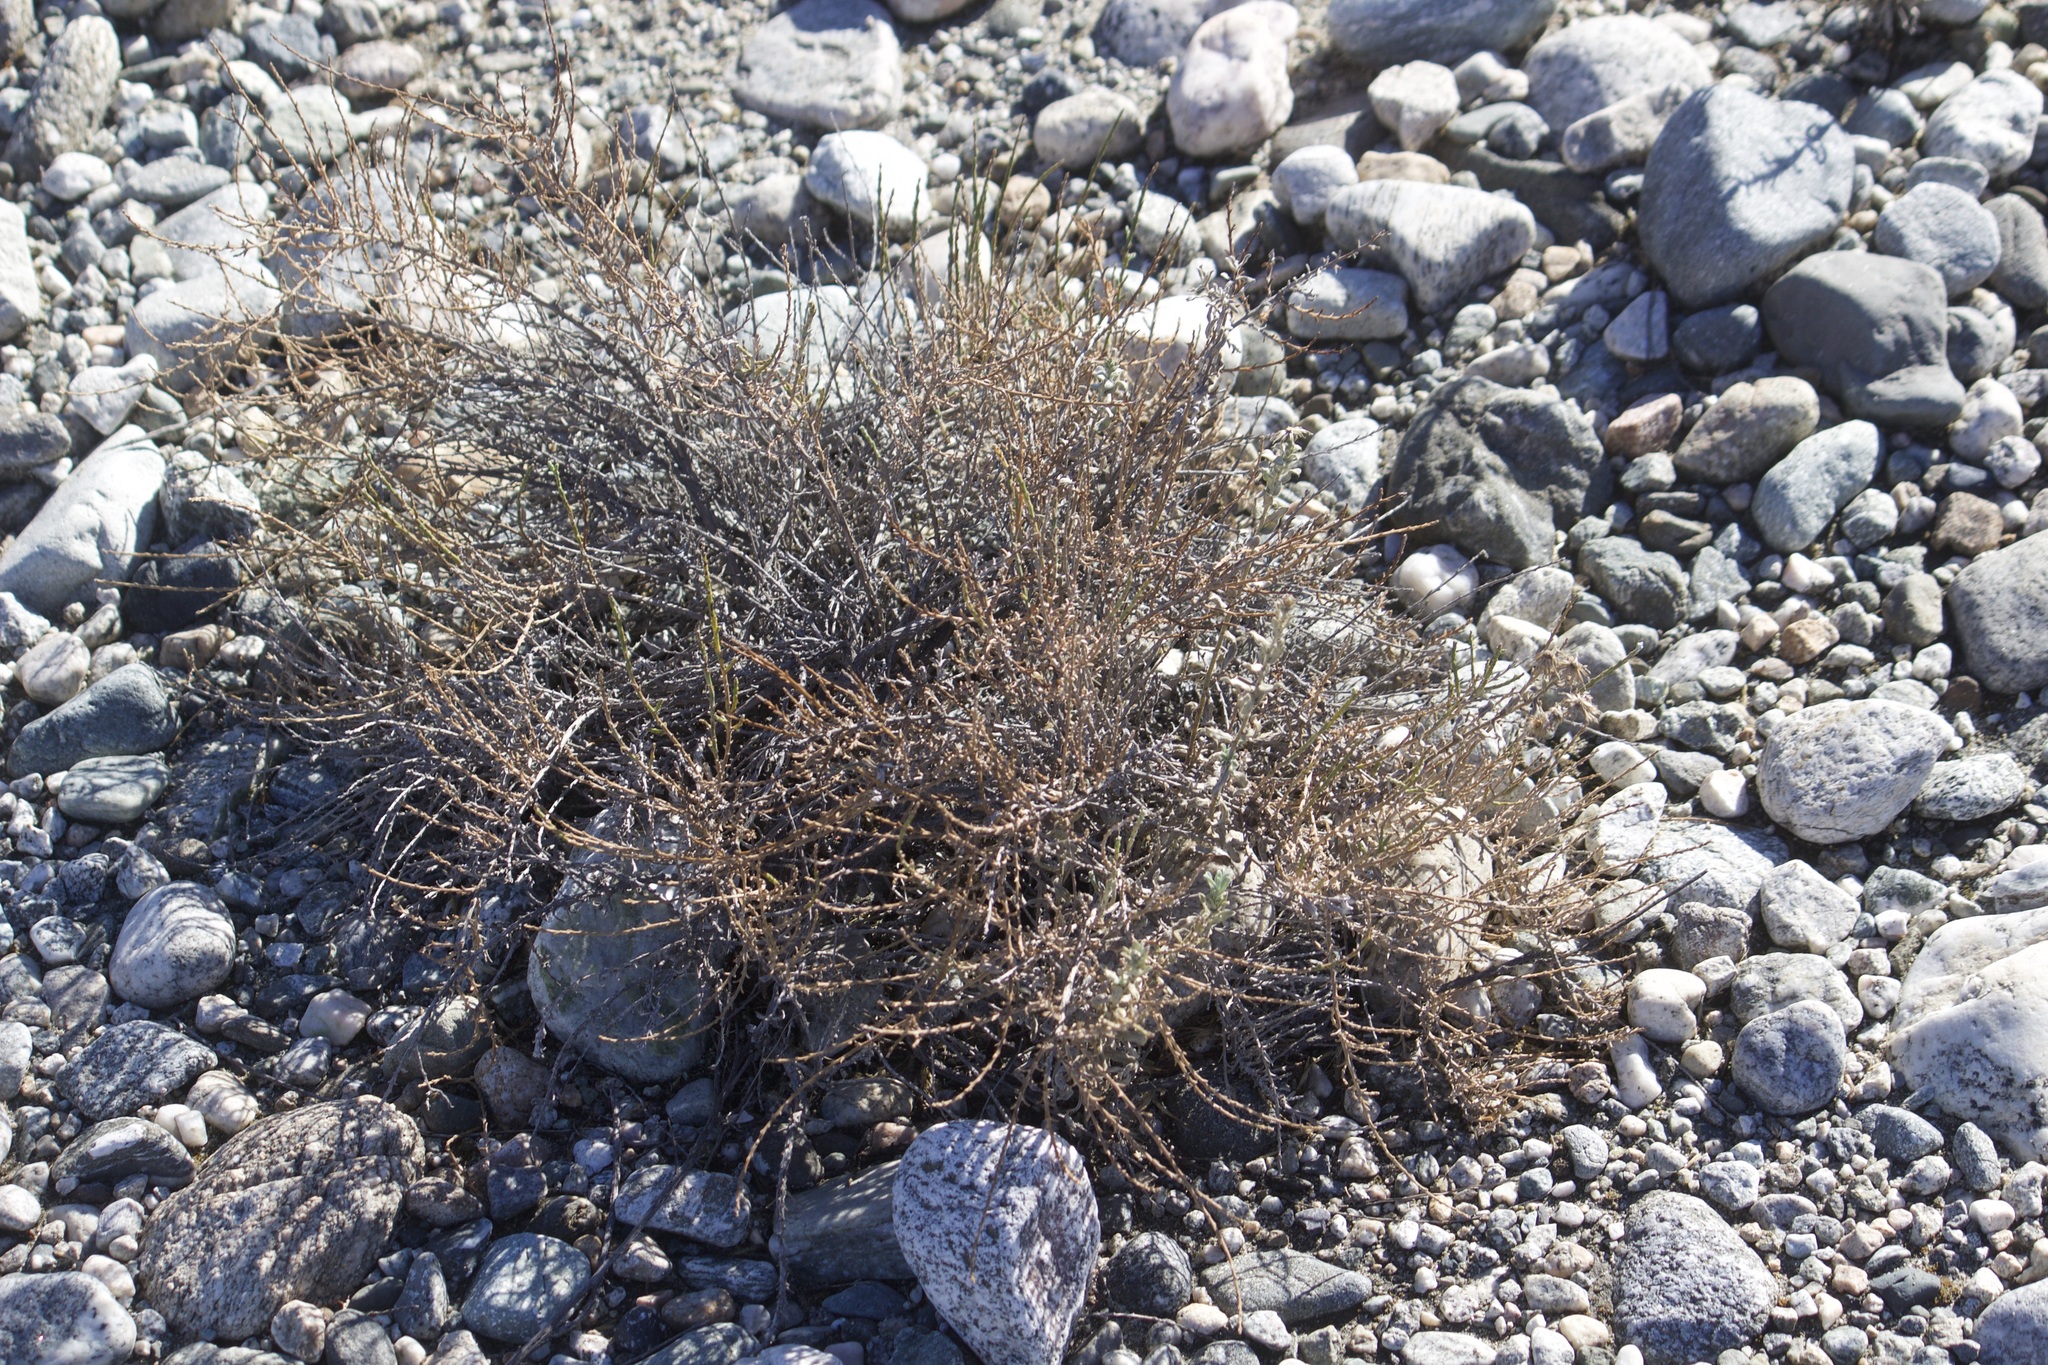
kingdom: Plantae
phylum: Tracheophyta
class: Magnoliopsida
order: Asterales
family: Asteraceae
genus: Lepidospartum
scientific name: Lepidospartum squamatum
